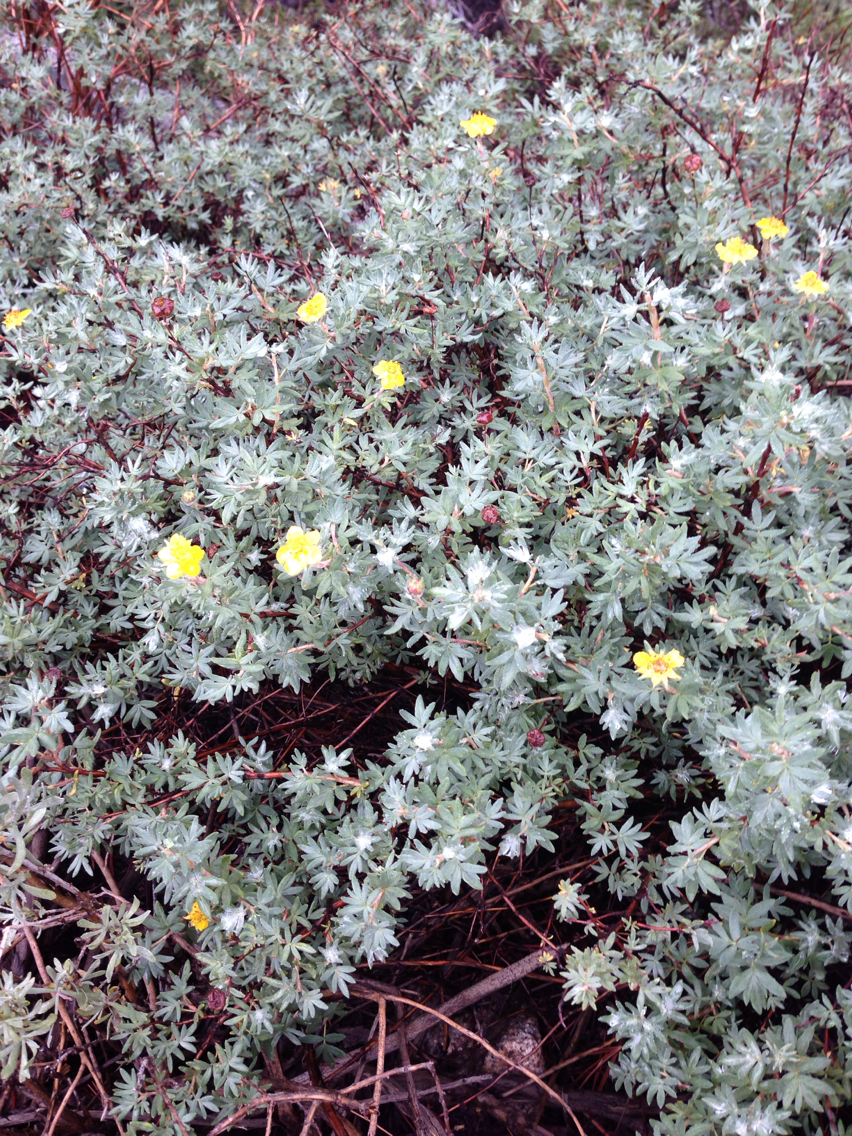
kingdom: Plantae
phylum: Tracheophyta
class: Magnoliopsida
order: Rosales
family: Rosaceae
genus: Dasiphora
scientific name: Dasiphora fruticosa
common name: Shrubby cinquefoil
